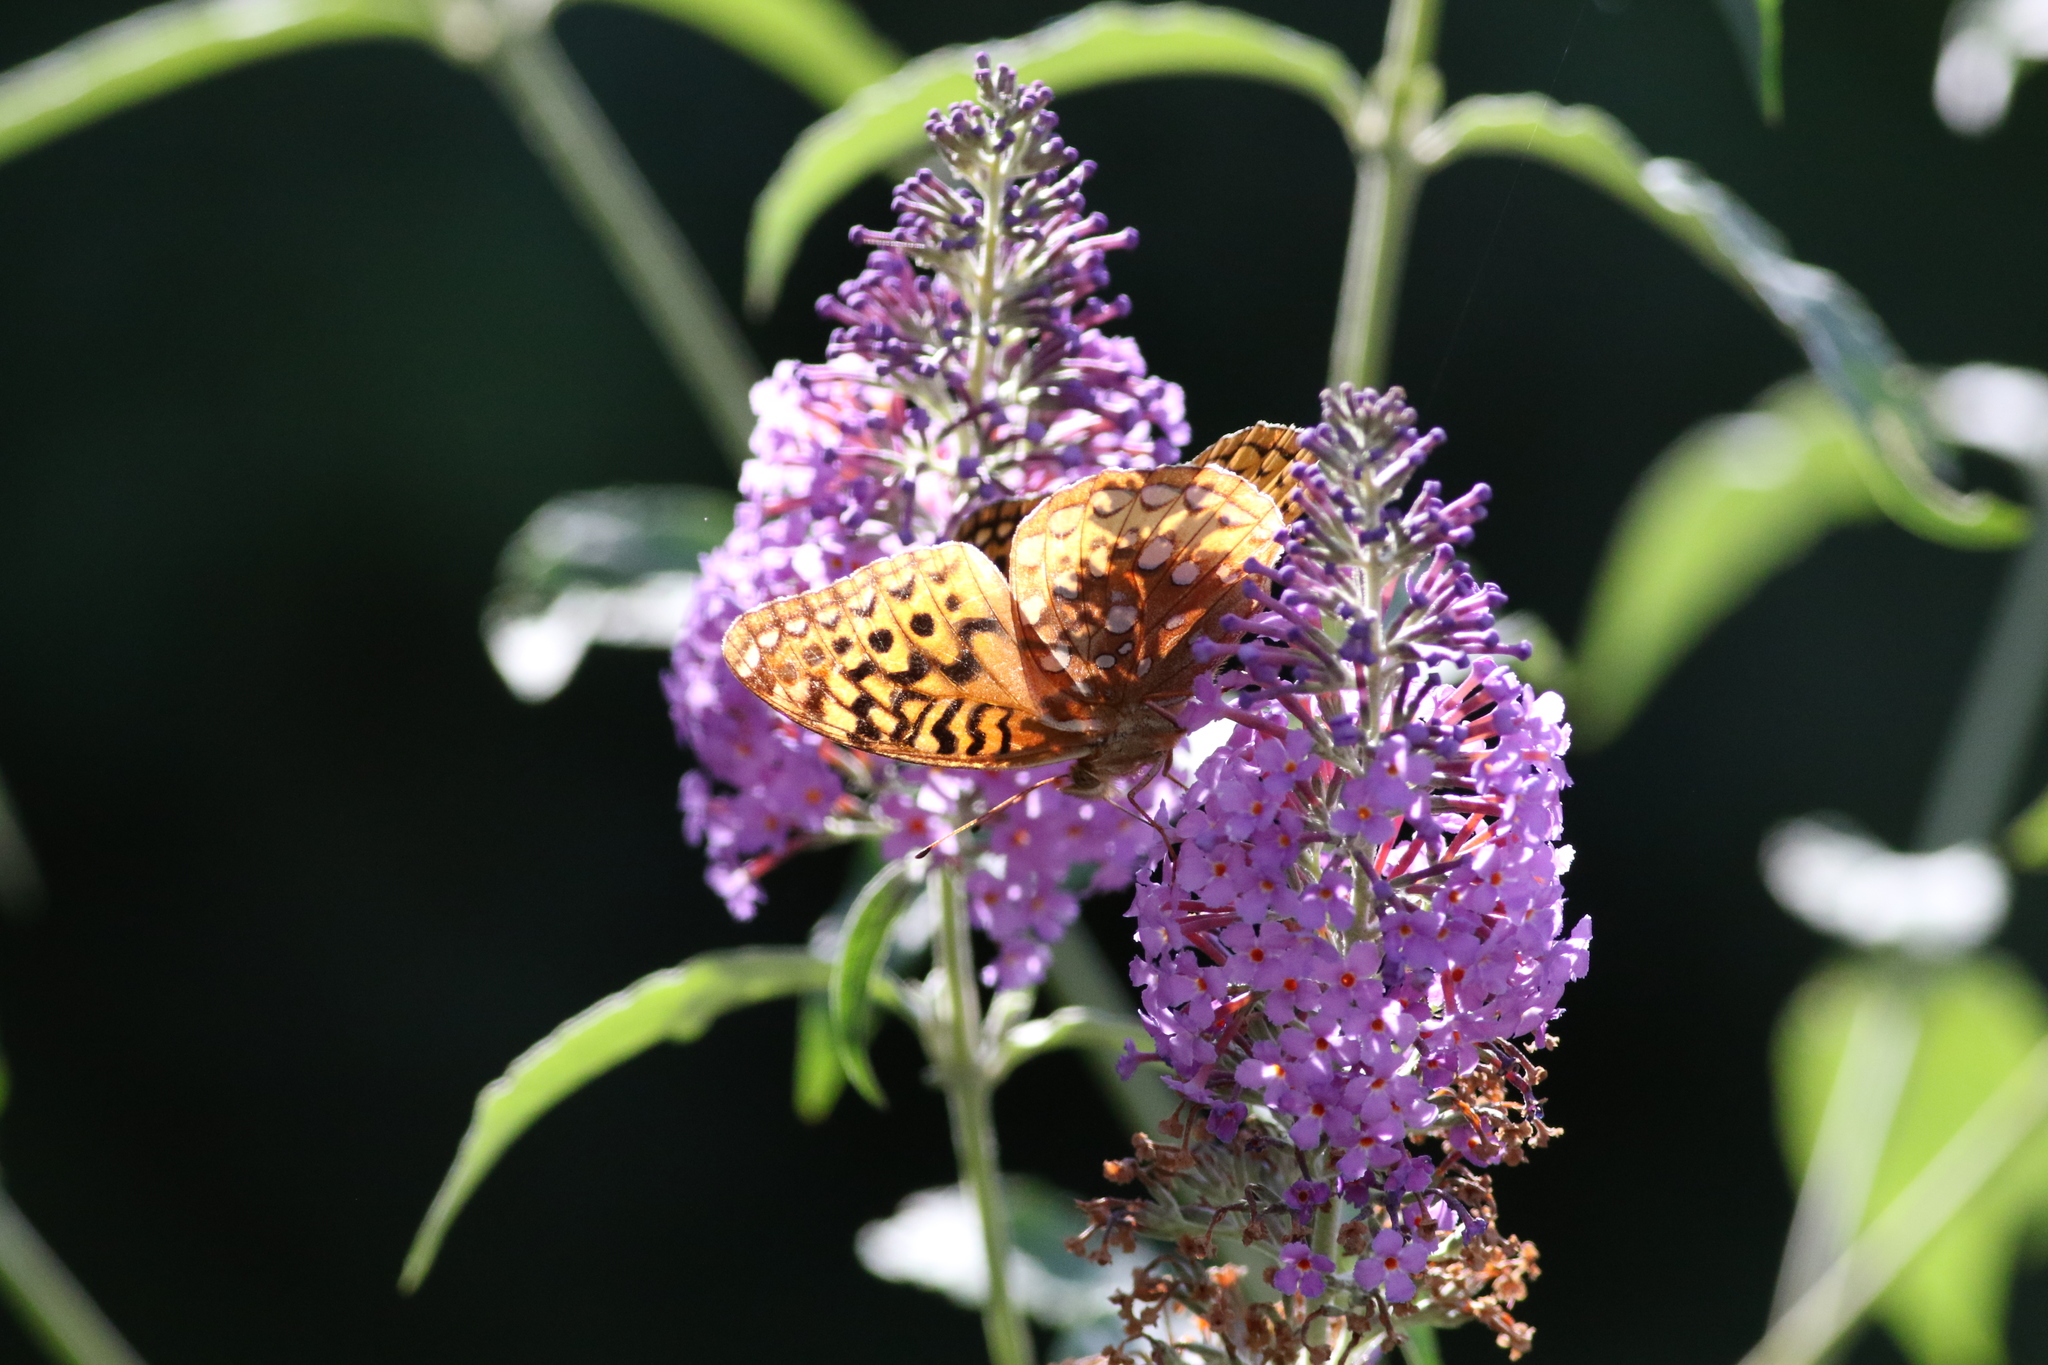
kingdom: Animalia
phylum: Arthropoda
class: Insecta
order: Lepidoptera
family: Nymphalidae
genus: Speyeria
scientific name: Speyeria cybele
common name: Great spangled fritillary
